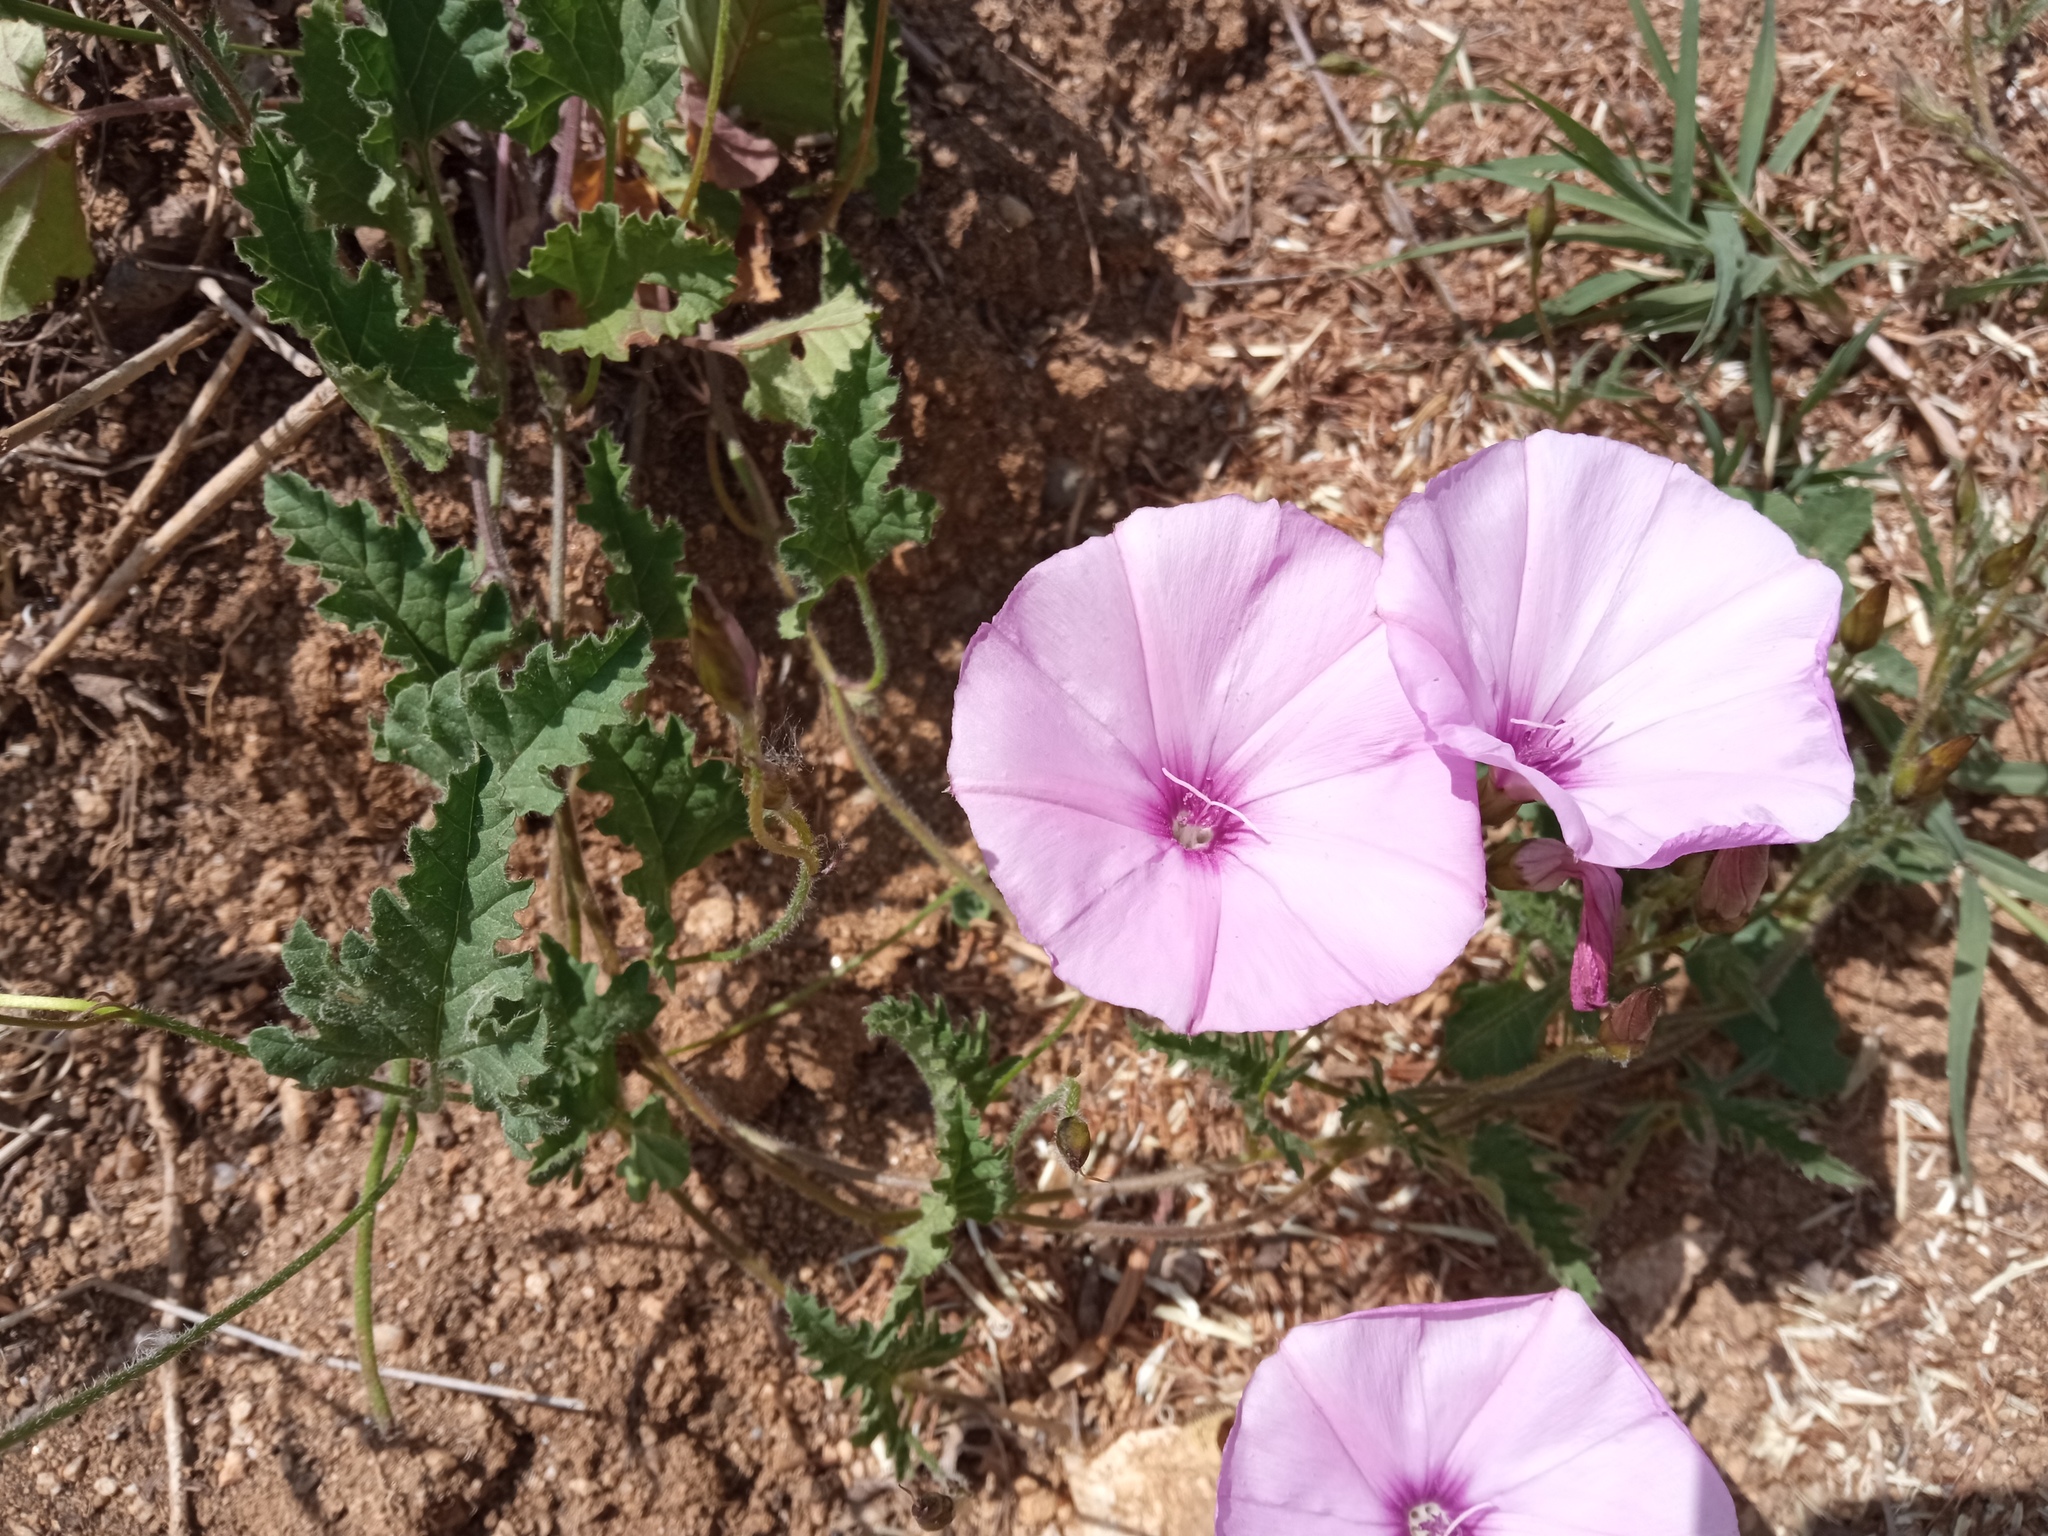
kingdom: Plantae
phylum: Tracheophyta
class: Magnoliopsida
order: Solanales
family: Convolvulaceae
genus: Convolvulus
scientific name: Convolvulus althaeoides
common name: Mallow bindweed
